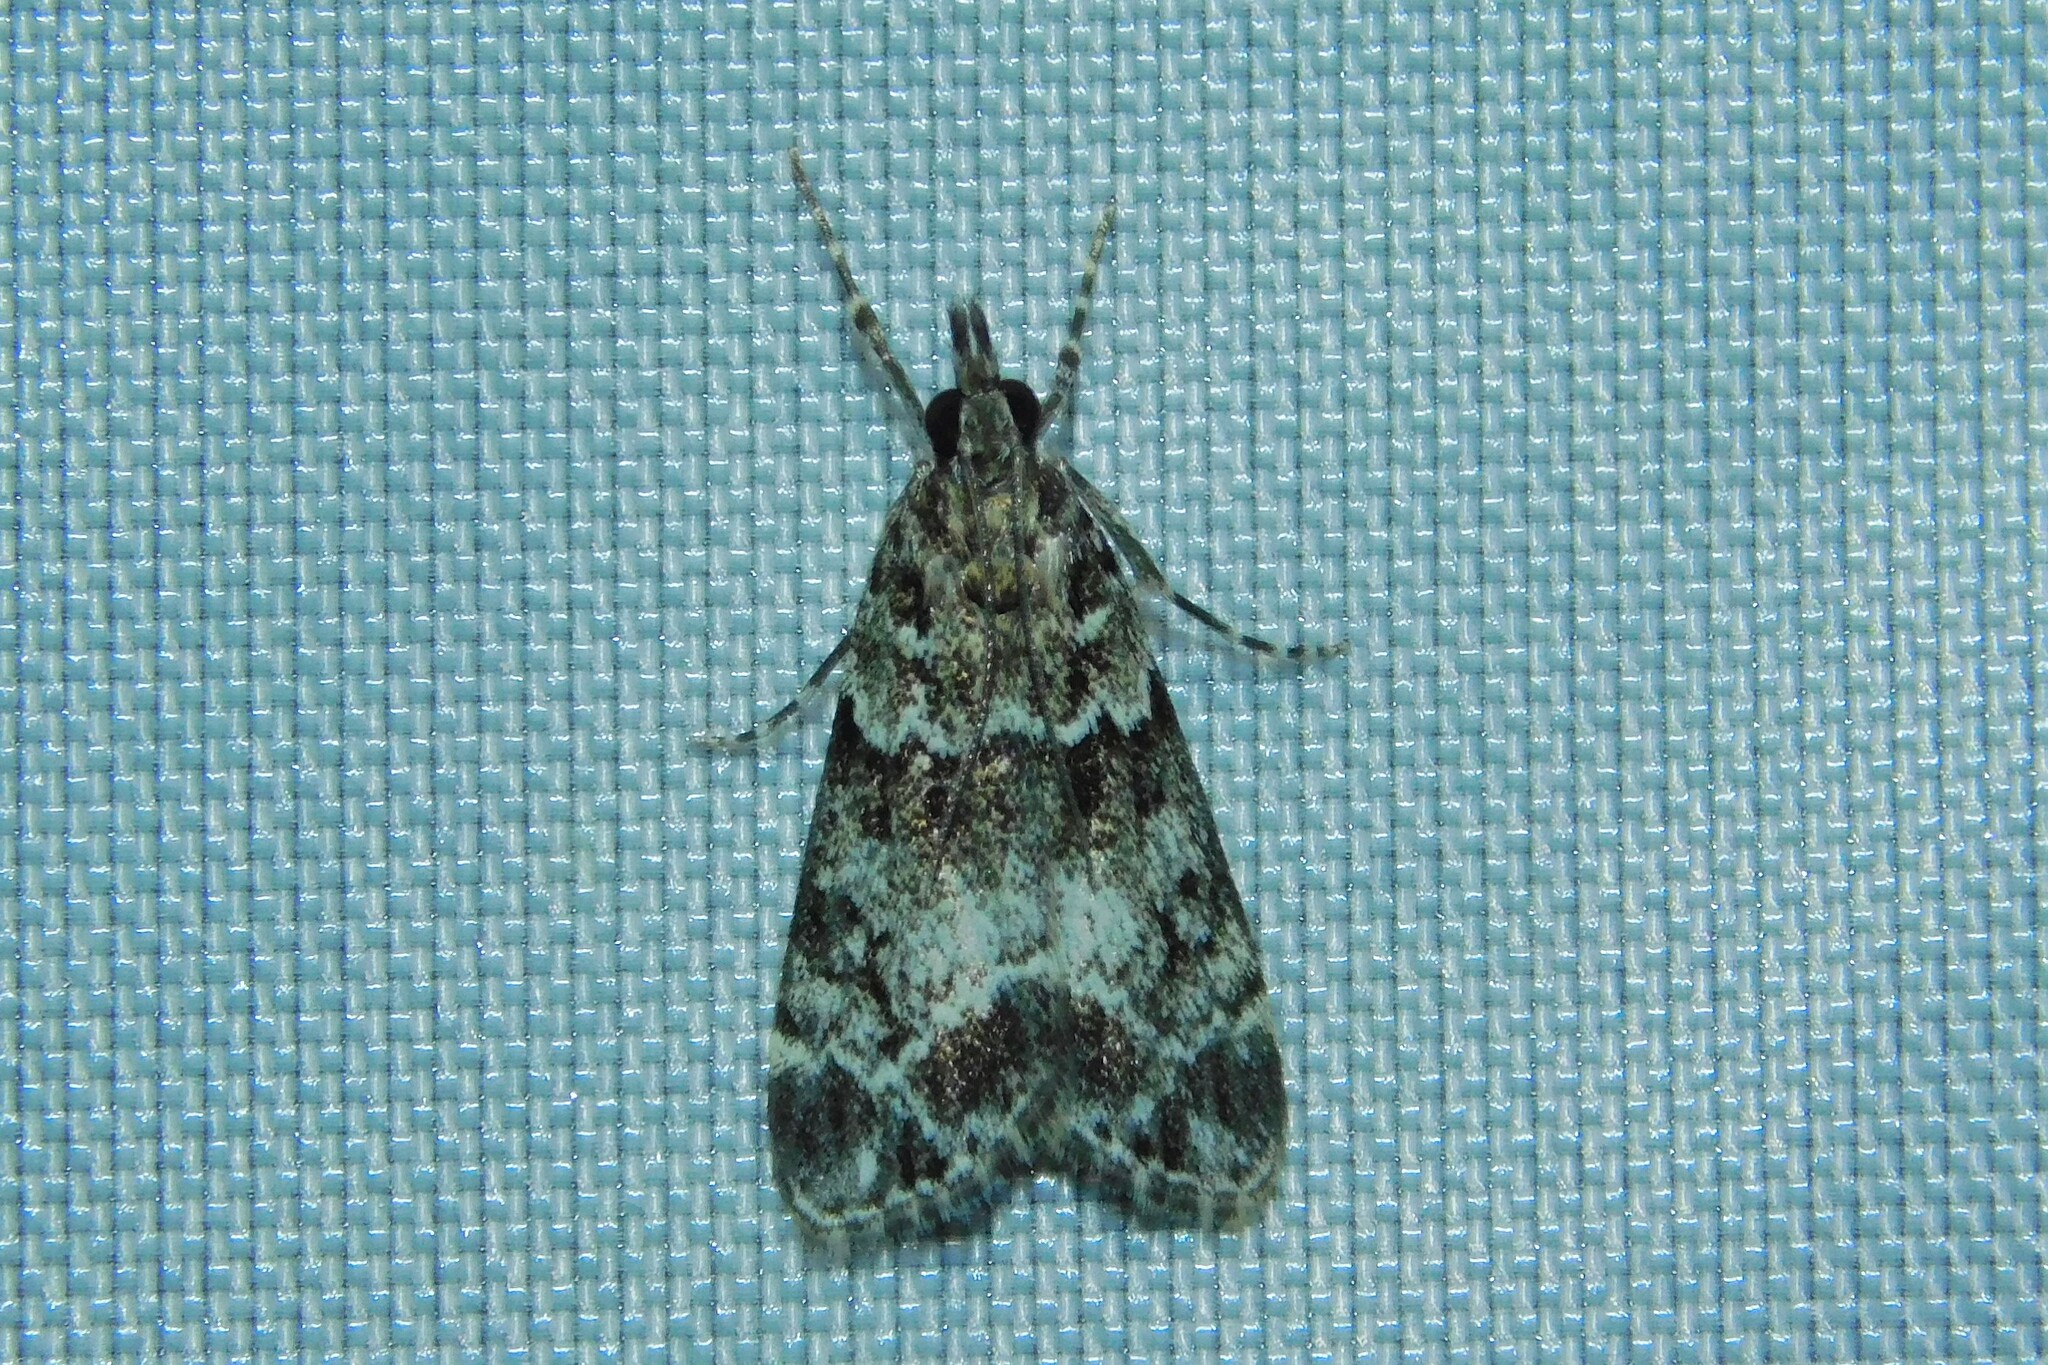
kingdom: Animalia
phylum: Arthropoda
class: Insecta
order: Lepidoptera
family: Crambidae
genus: Eudonia
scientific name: Eudonia mercurella
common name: Small grey
